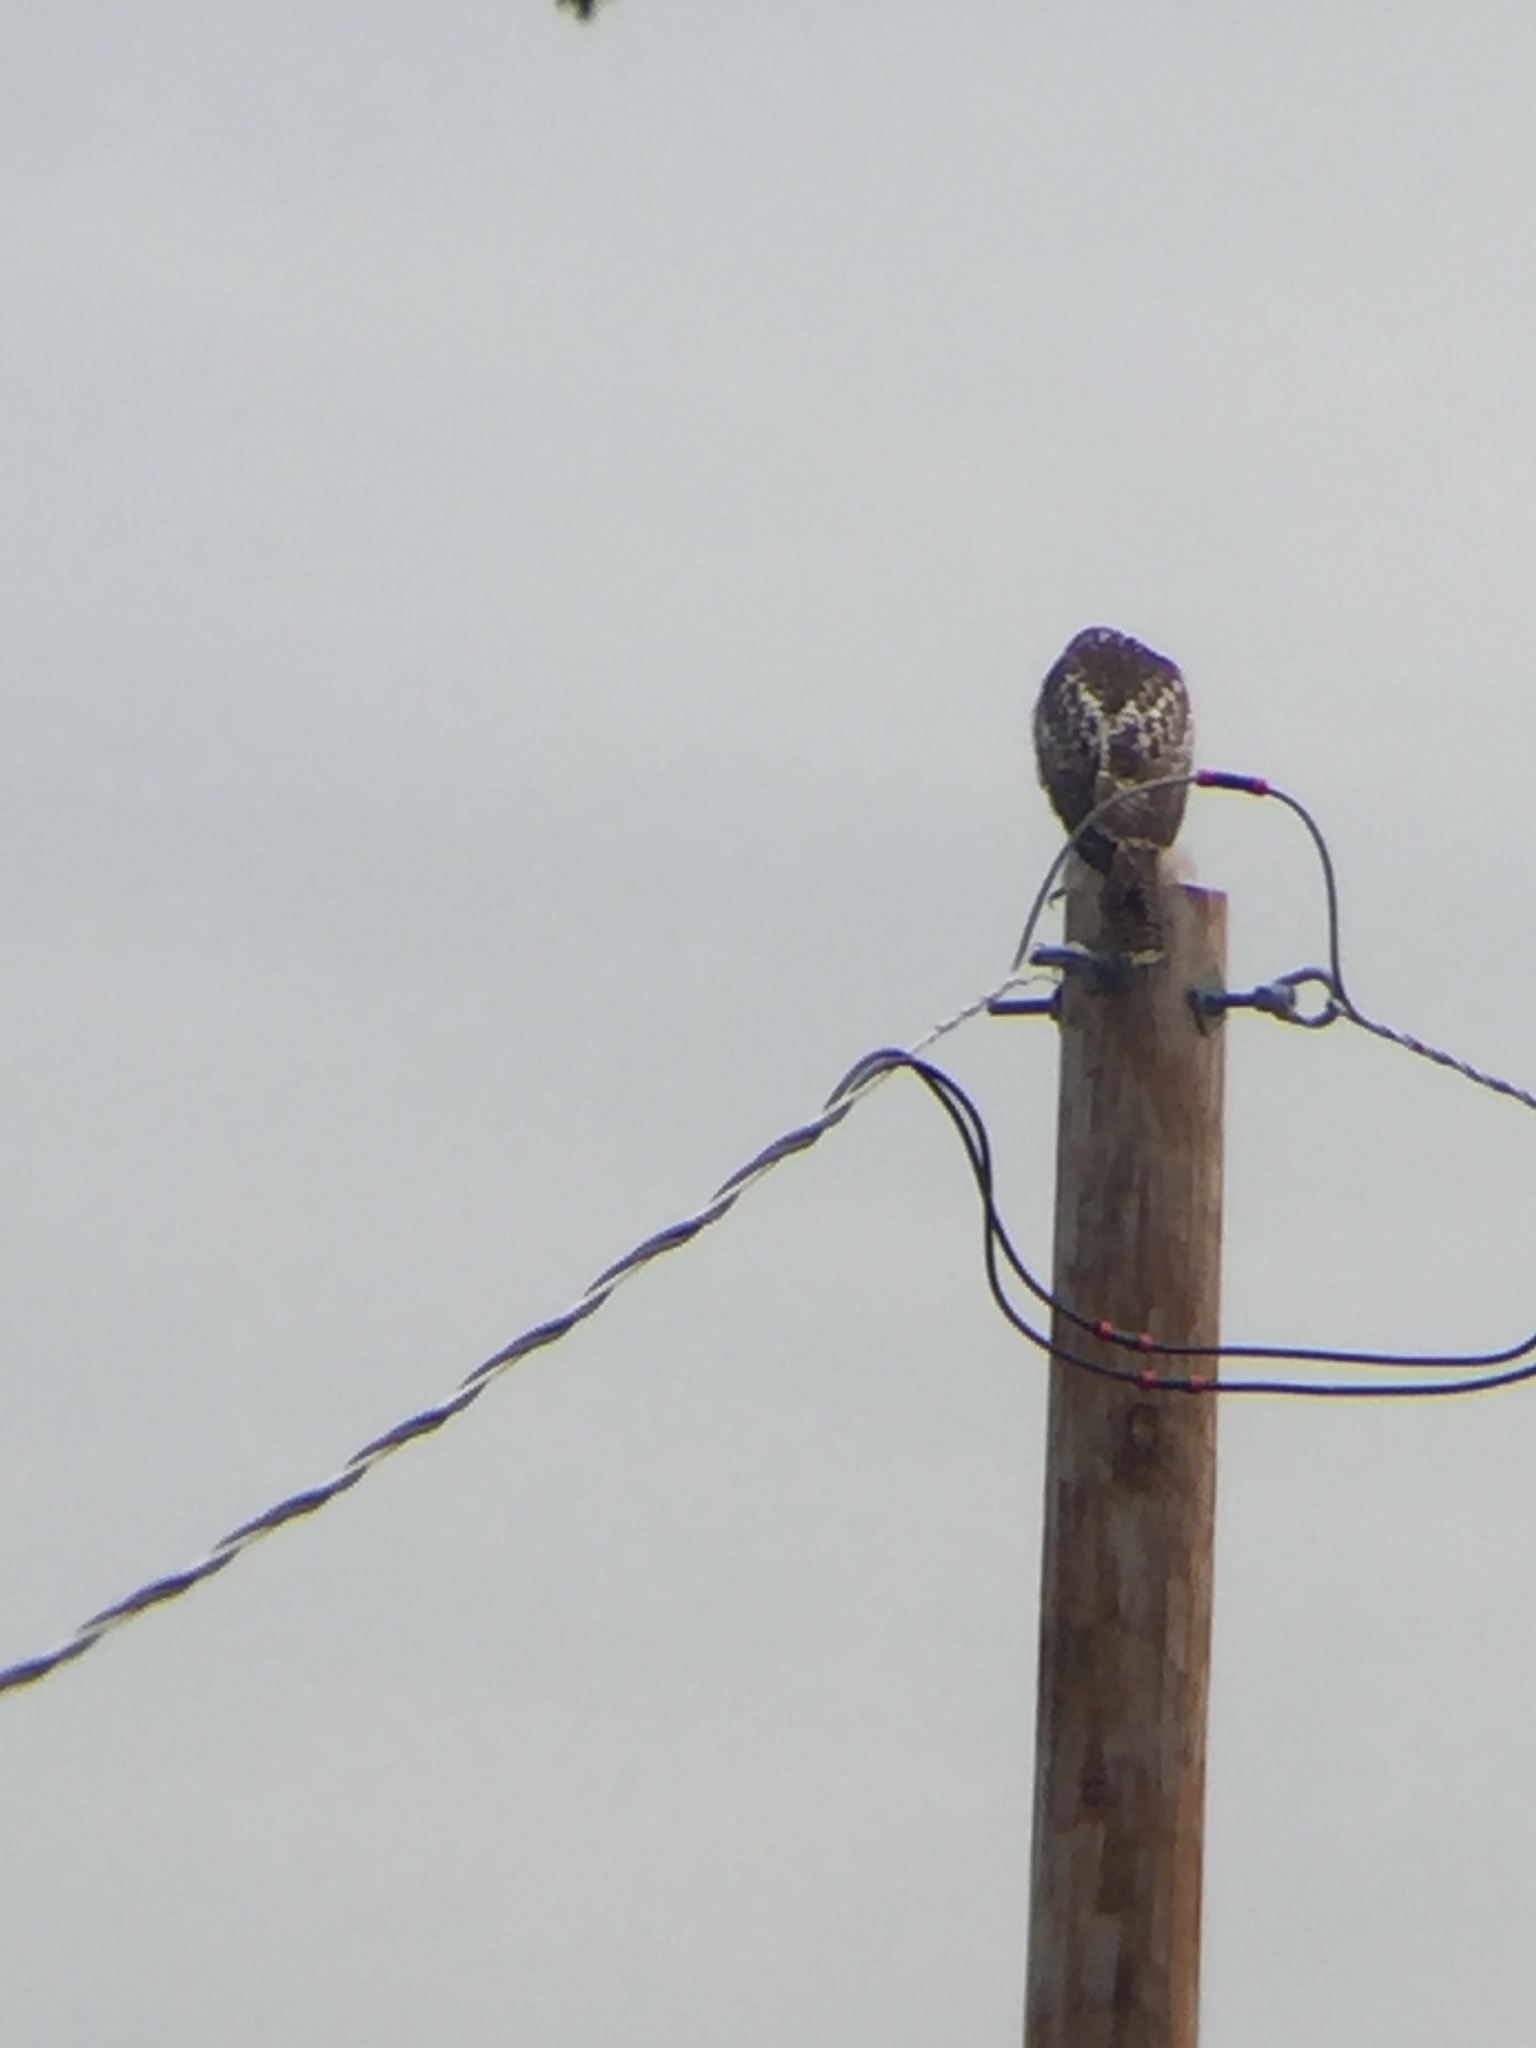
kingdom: Animalia
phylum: Chordata
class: Aves
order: Accipitriformes
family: Accipitridae
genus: Buteo
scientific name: Buteo jamaicensis
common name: Red-tailed hawk
